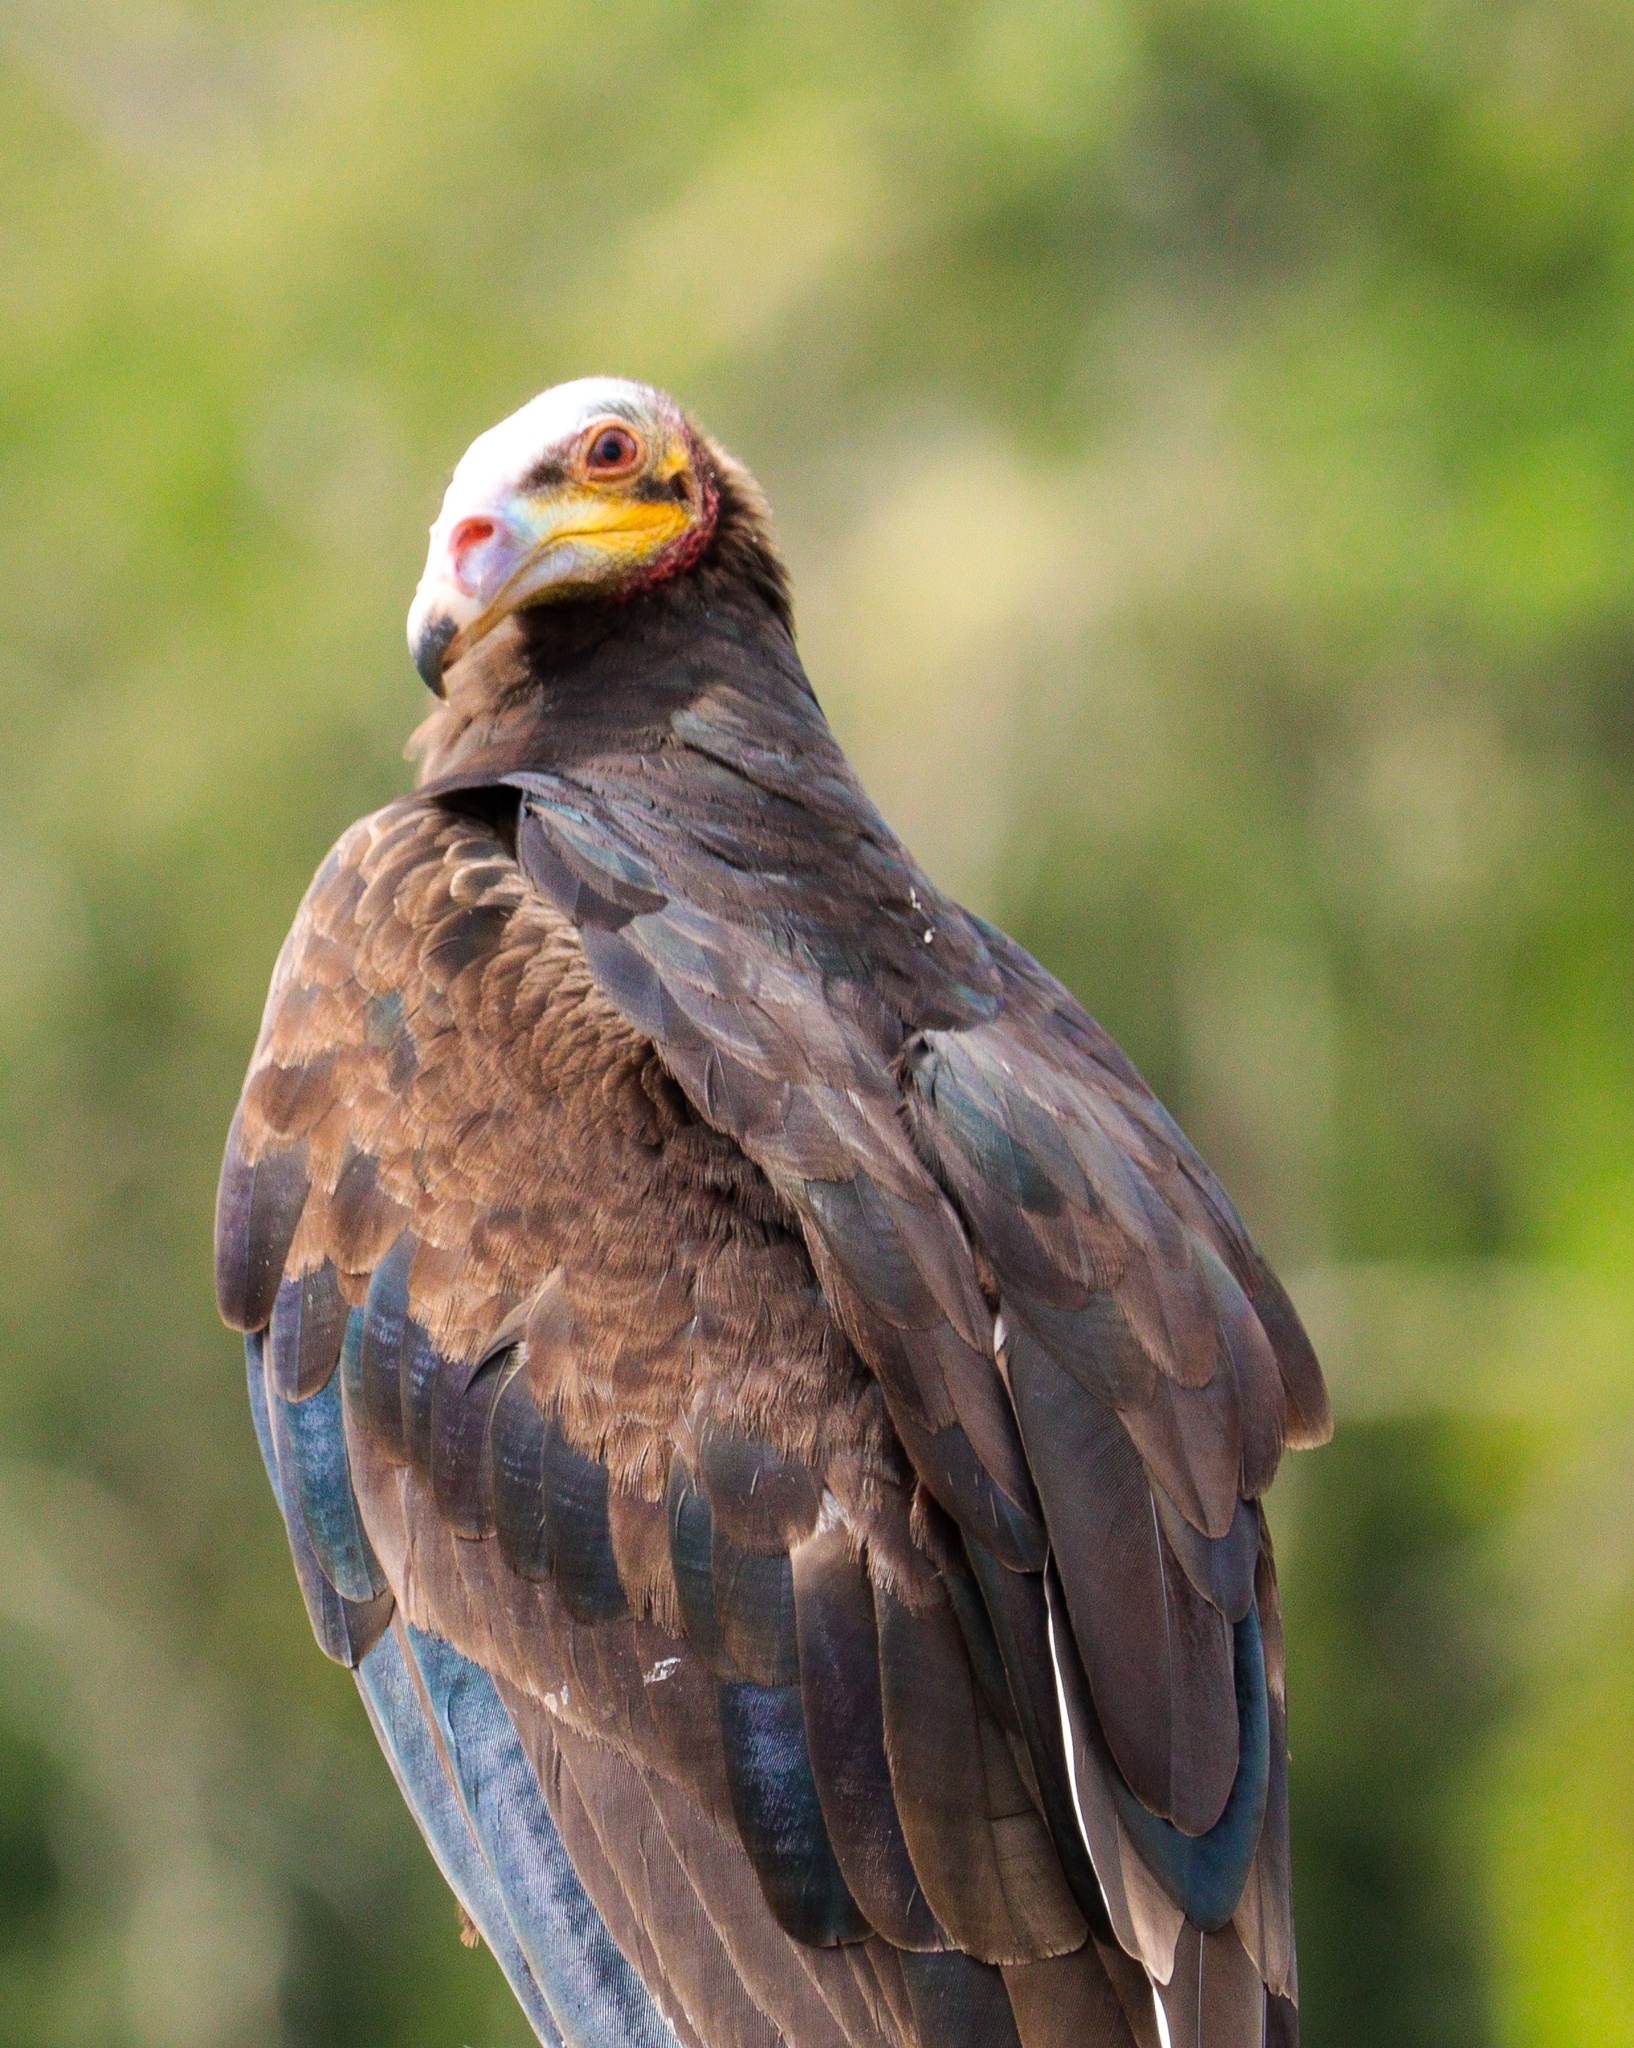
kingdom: Animalia
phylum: Chordata
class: Aves
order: Accipitriformes
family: Cathartidae
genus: Cathartes
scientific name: Cathartes burrovianus
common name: Lesser yellow-headed vulture
